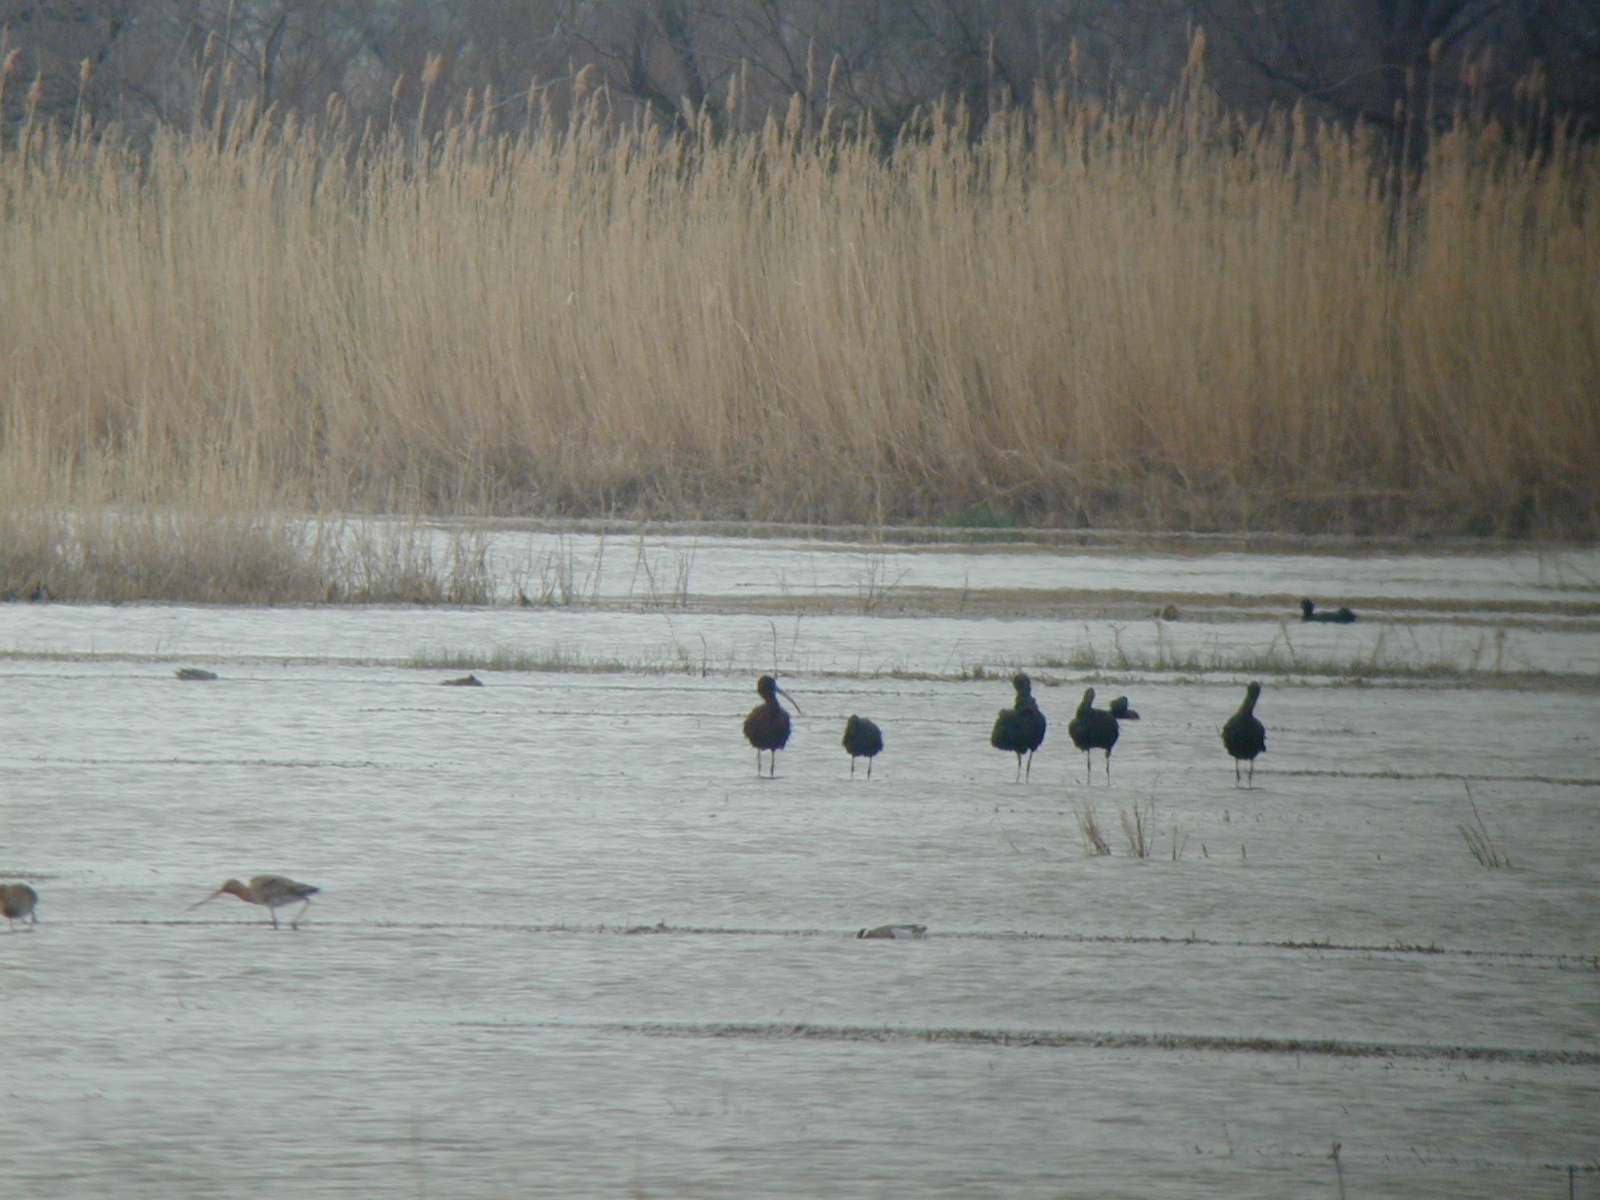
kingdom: Animalia
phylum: Chordata
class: Aves
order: Pelecaniformes
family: Threskiornithidae
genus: Plegadis
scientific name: Plegadis falcinellus
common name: Glossy ibis
